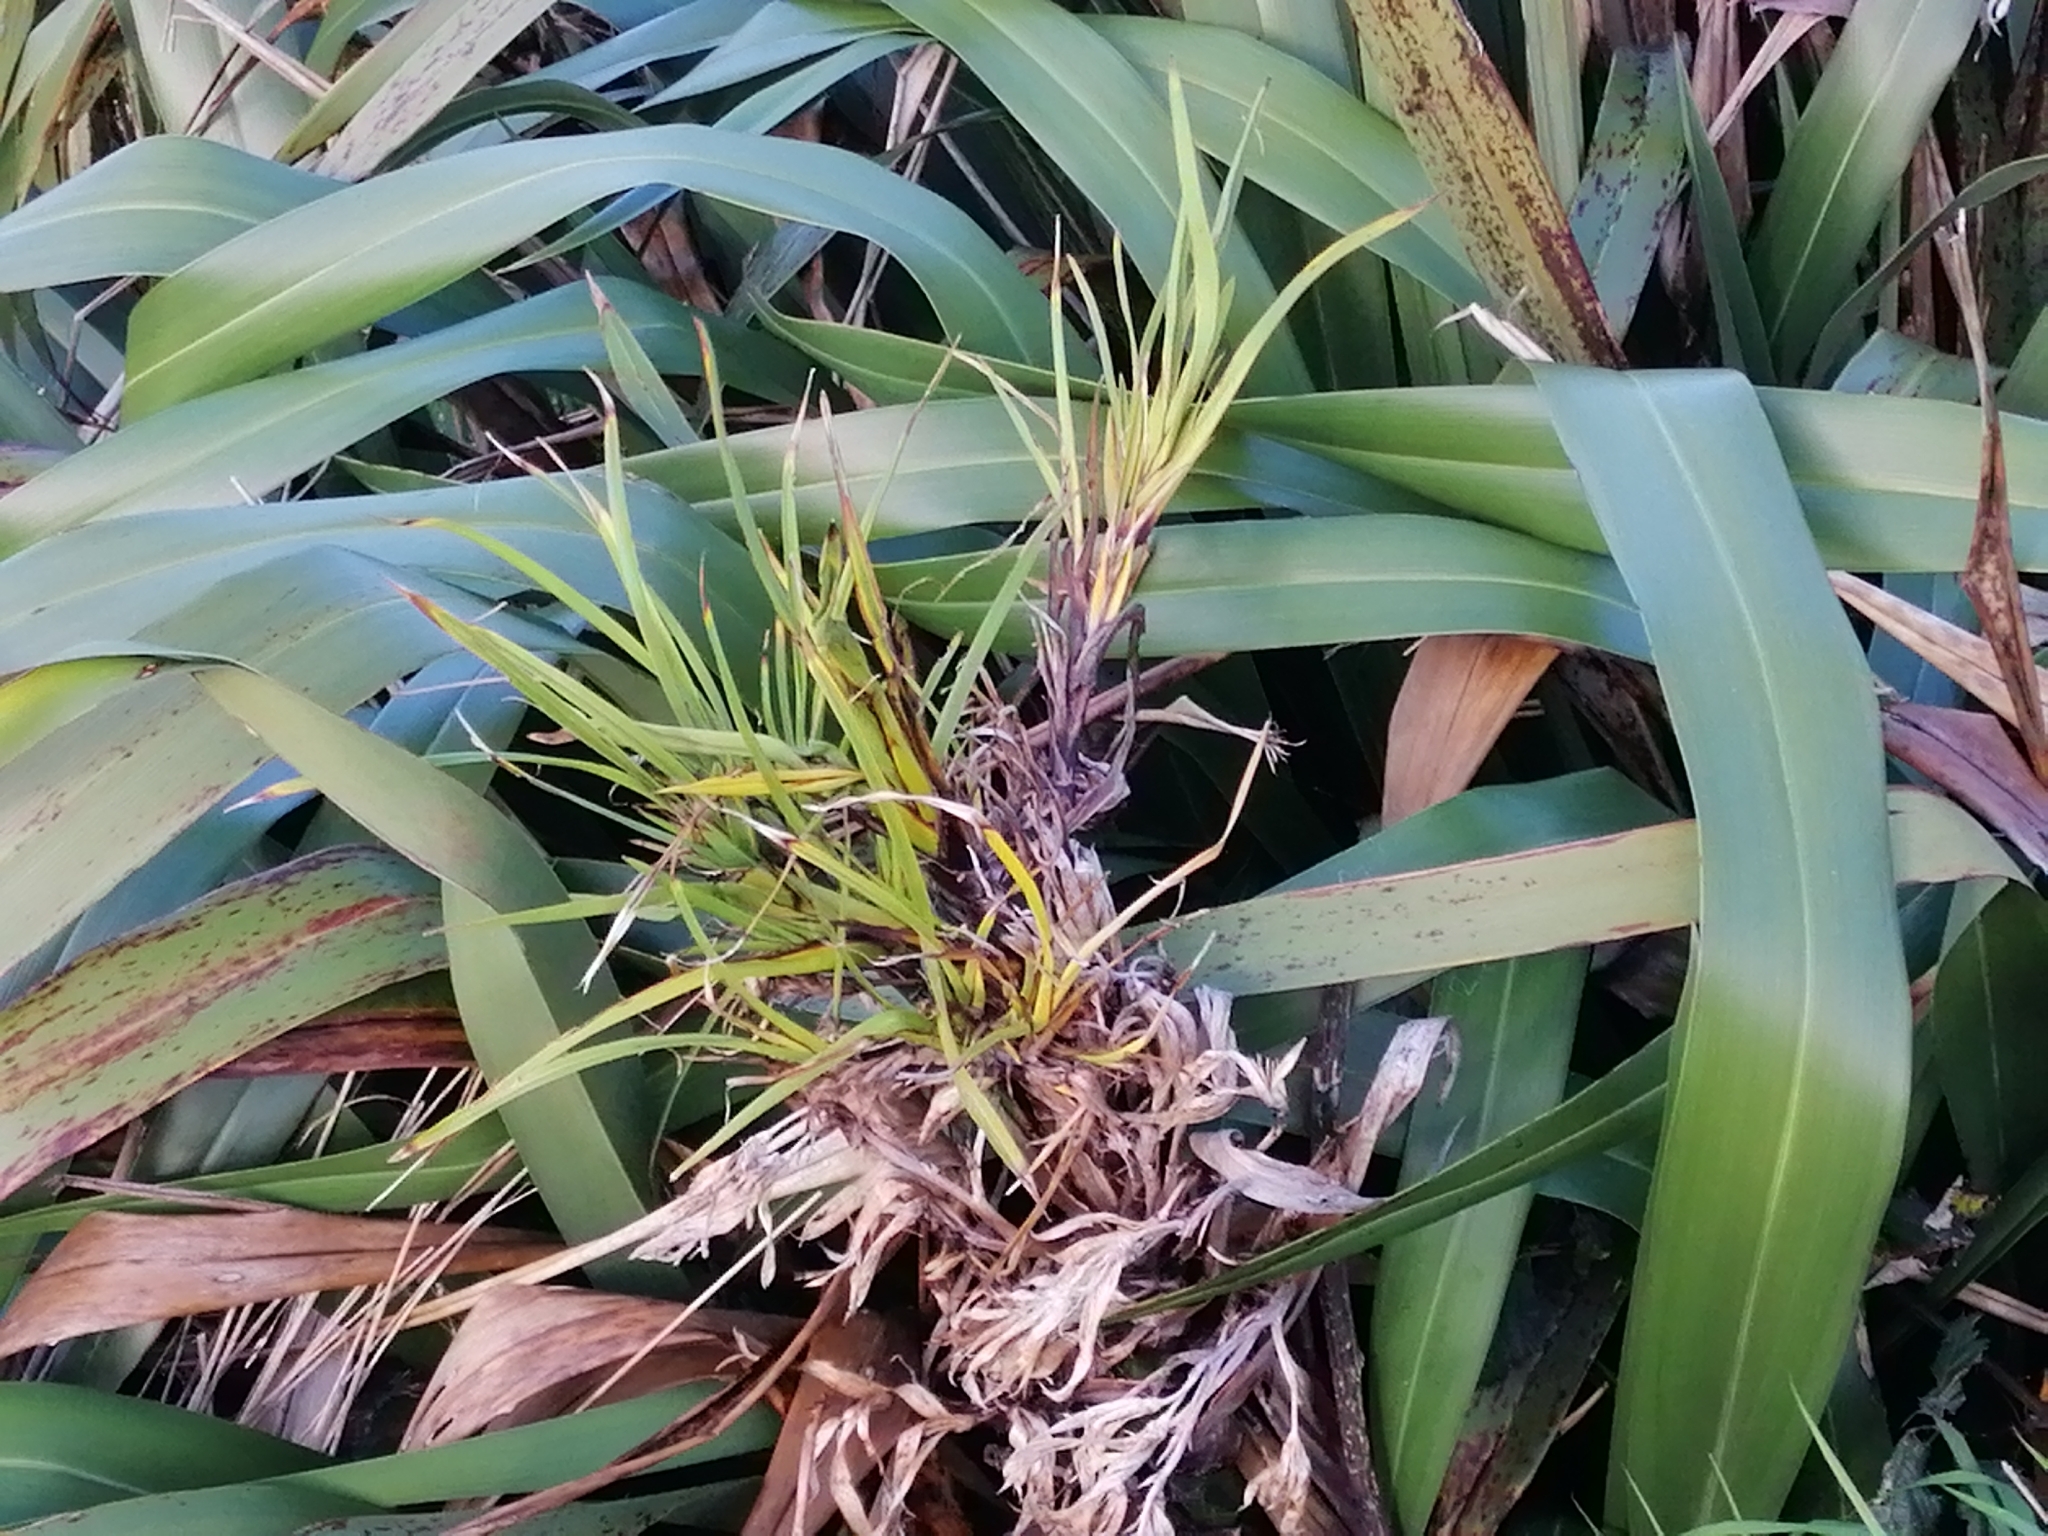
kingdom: Plantae
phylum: Tracheophyta
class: Liliopsida
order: Asparagales
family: Asphodelaceae
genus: Phormium
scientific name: Phormium tenax
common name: New zealand flax
